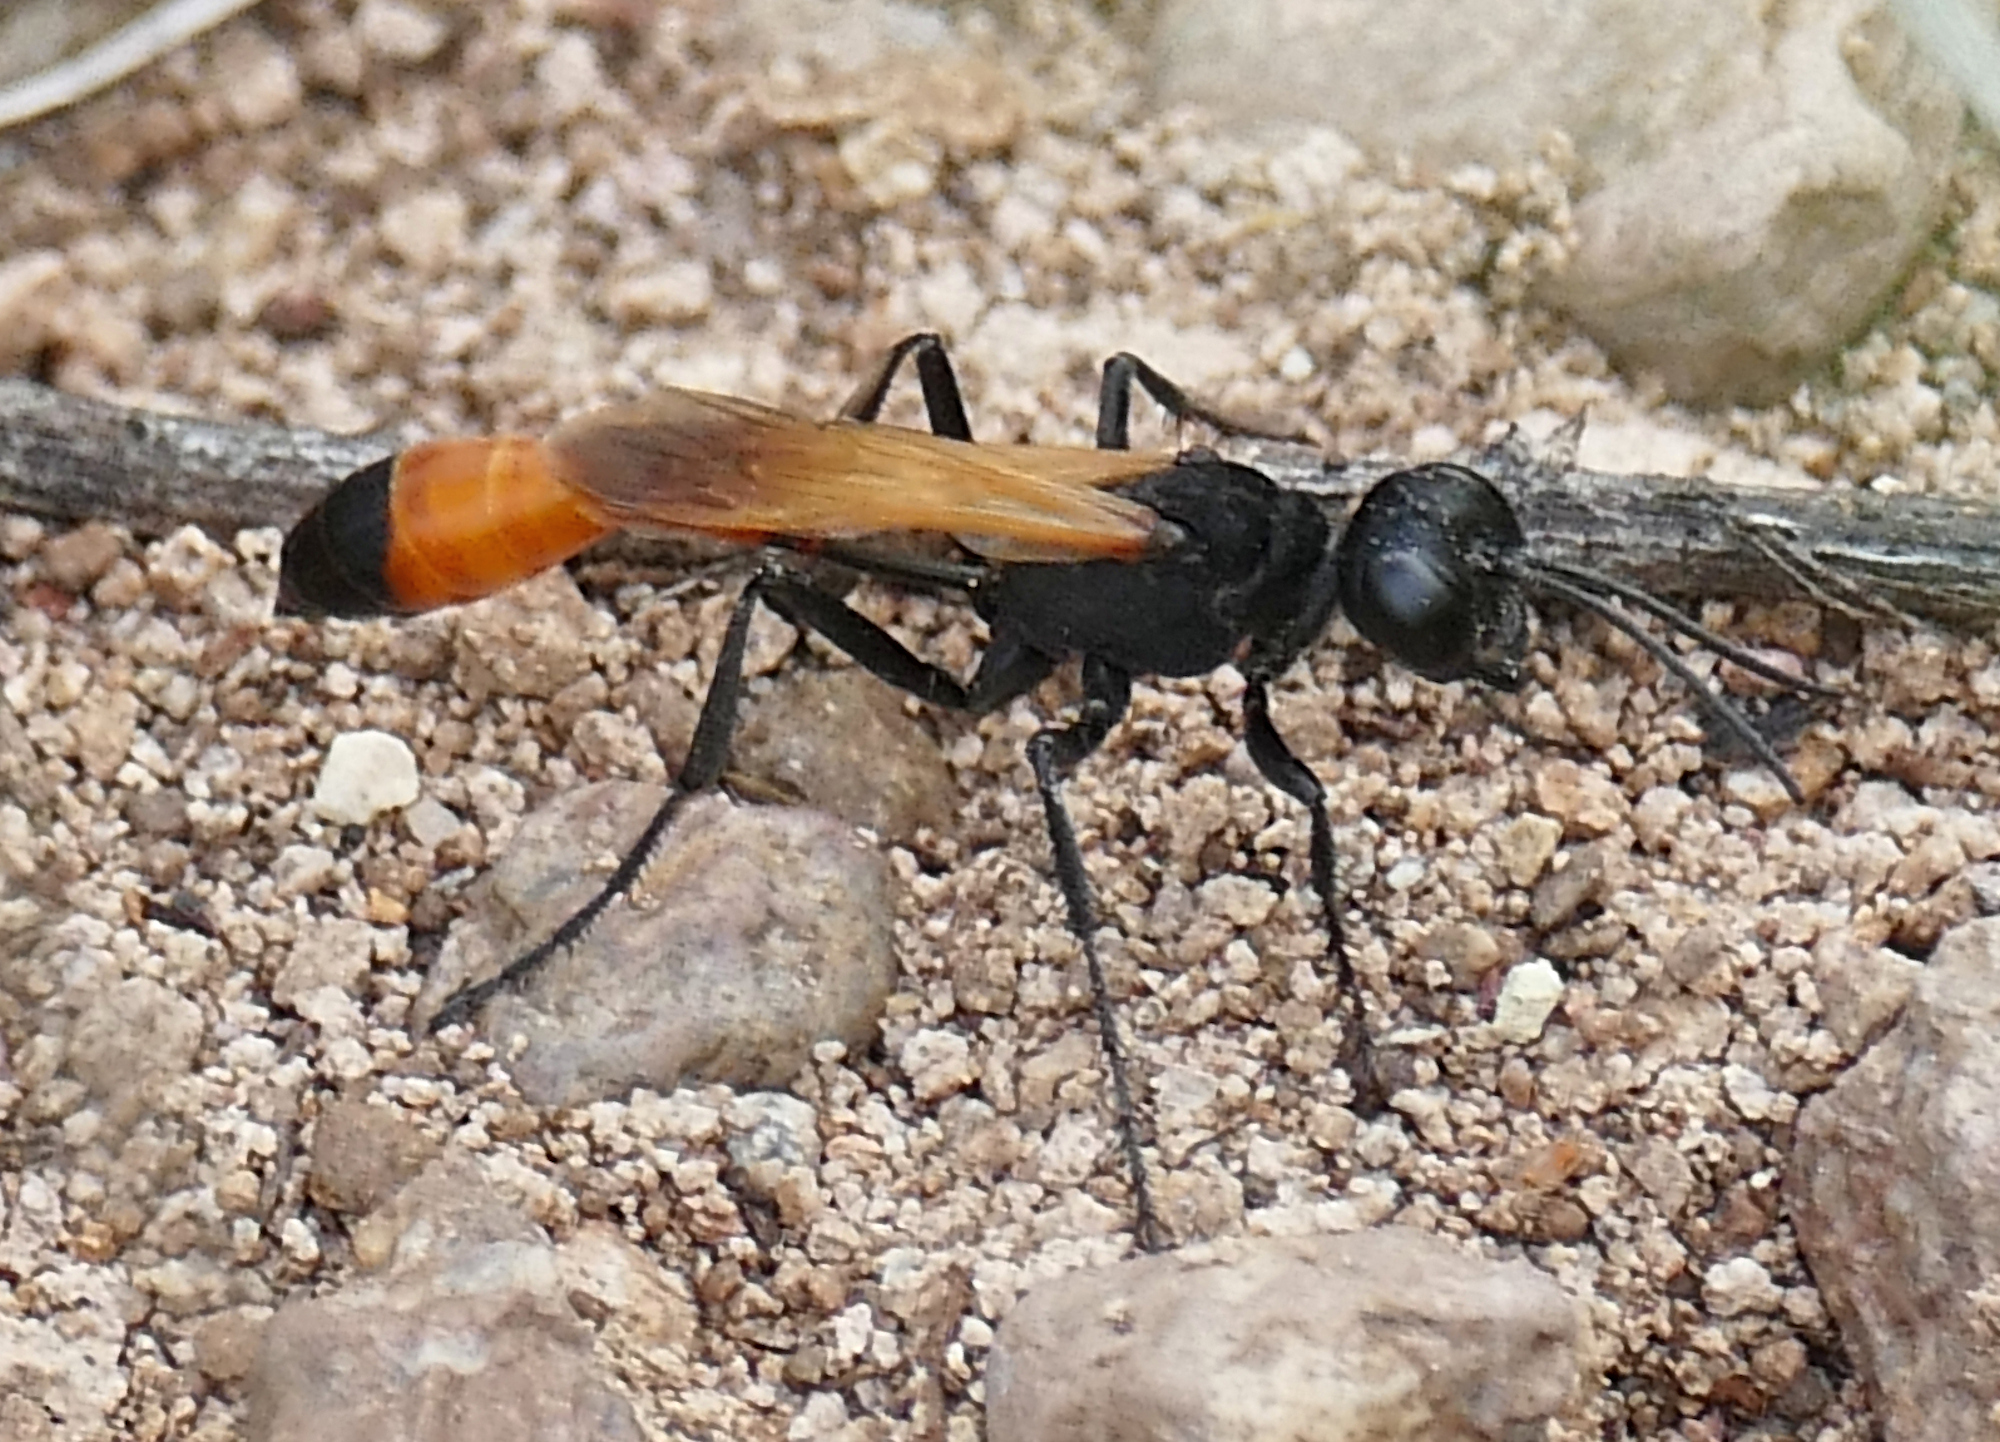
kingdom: Animalia
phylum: Arthropoda
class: Insecta
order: Hymenoptera
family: Sphecidae
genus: Ammophila
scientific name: Ammophila placida
